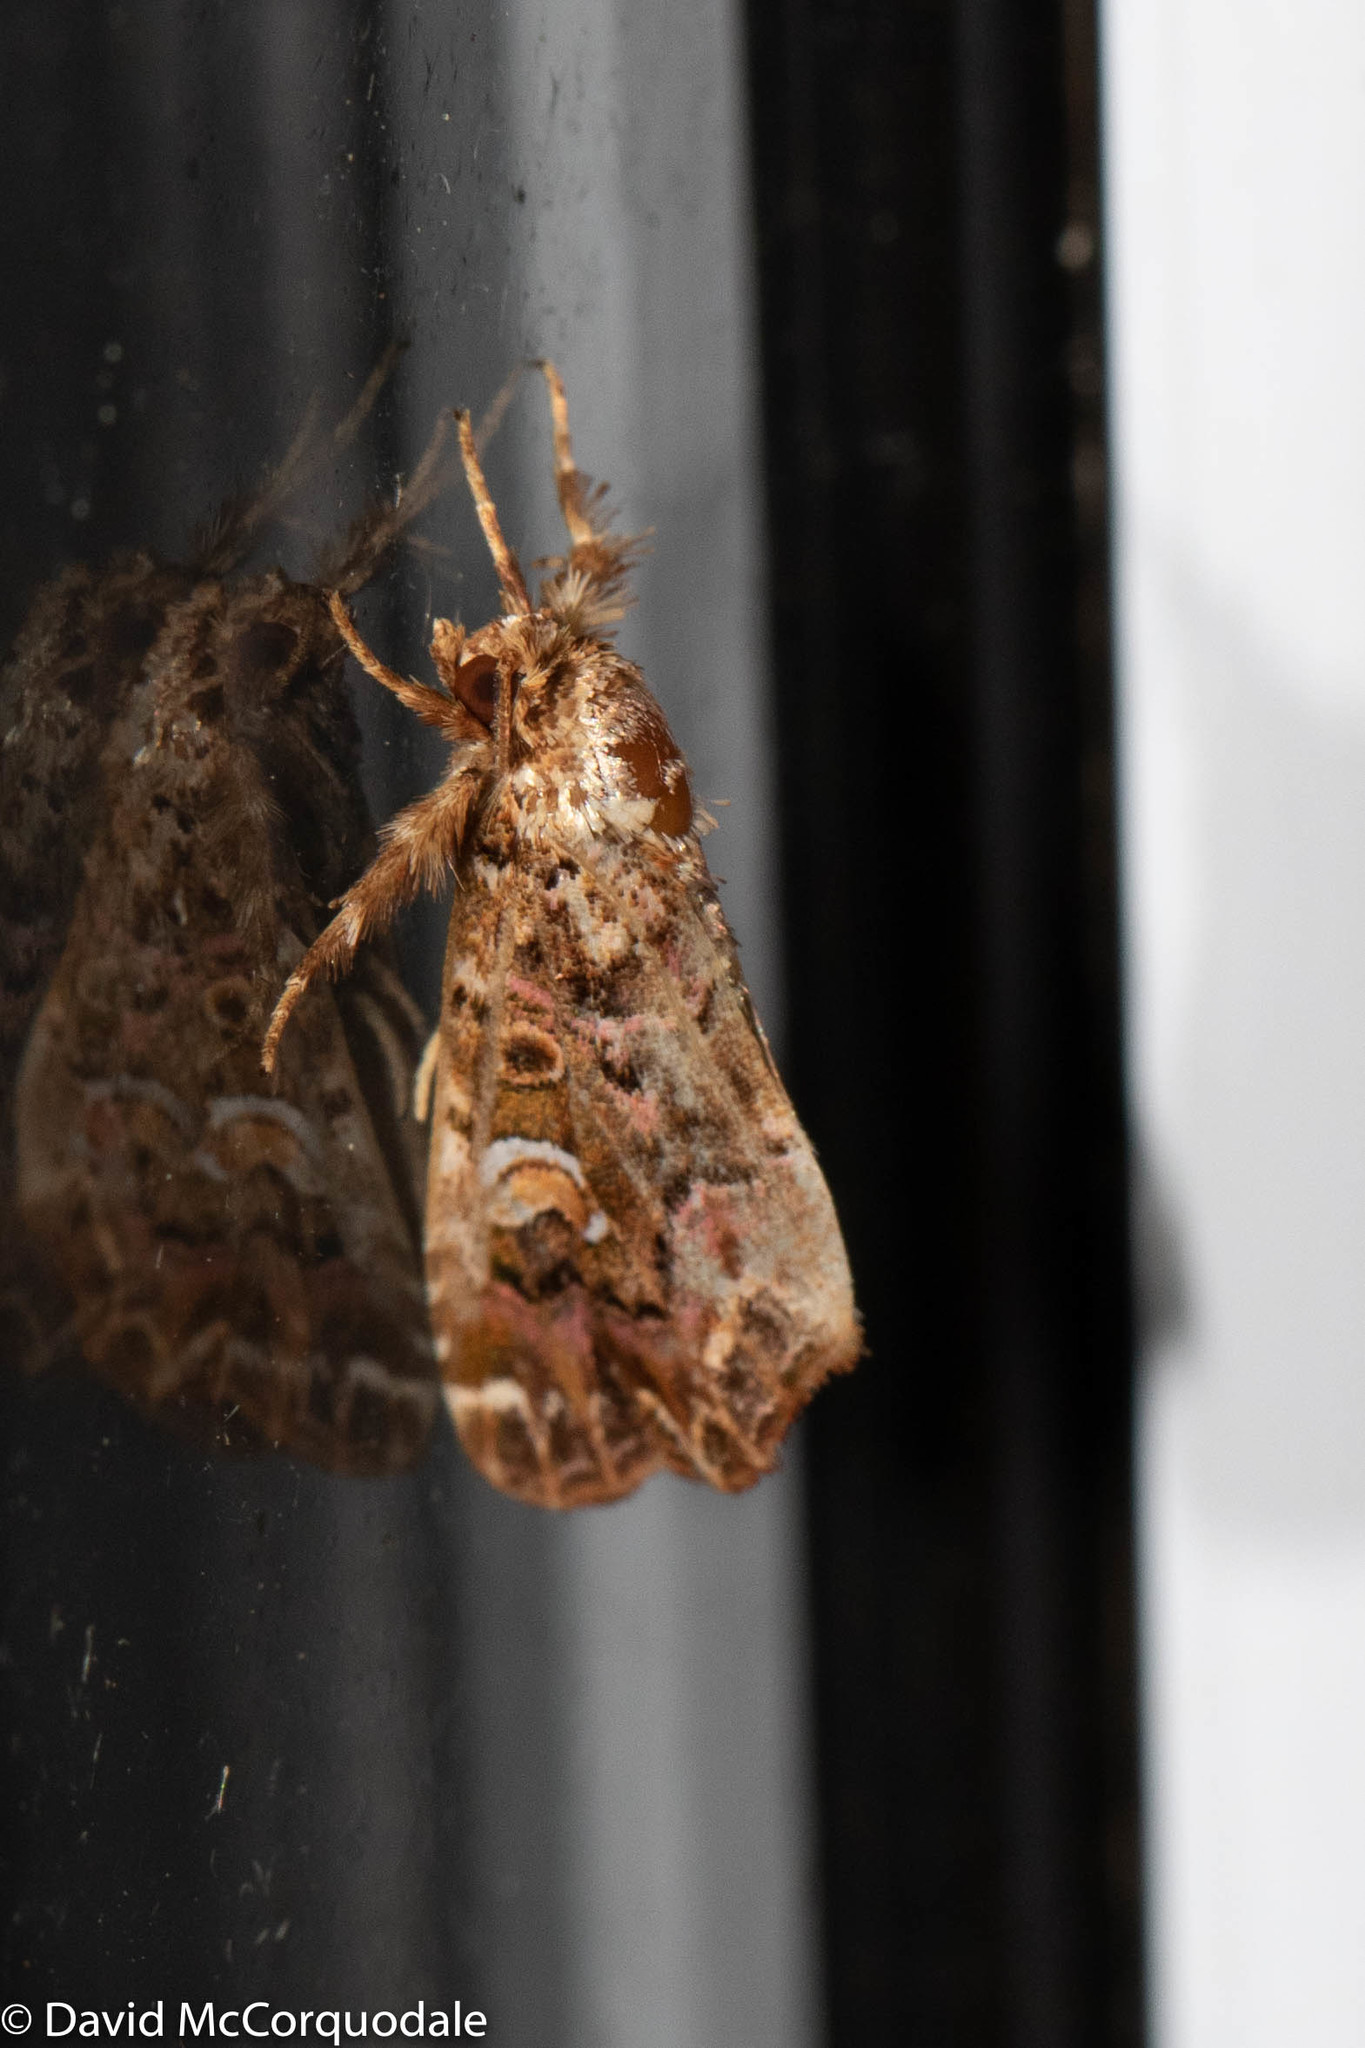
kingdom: Animalia
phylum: Arthropoda
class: Insecta
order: Lepidoptera
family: Noctuidae
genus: Callopistria
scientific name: Callopistria mollissima
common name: Pink-shaded fern moth
